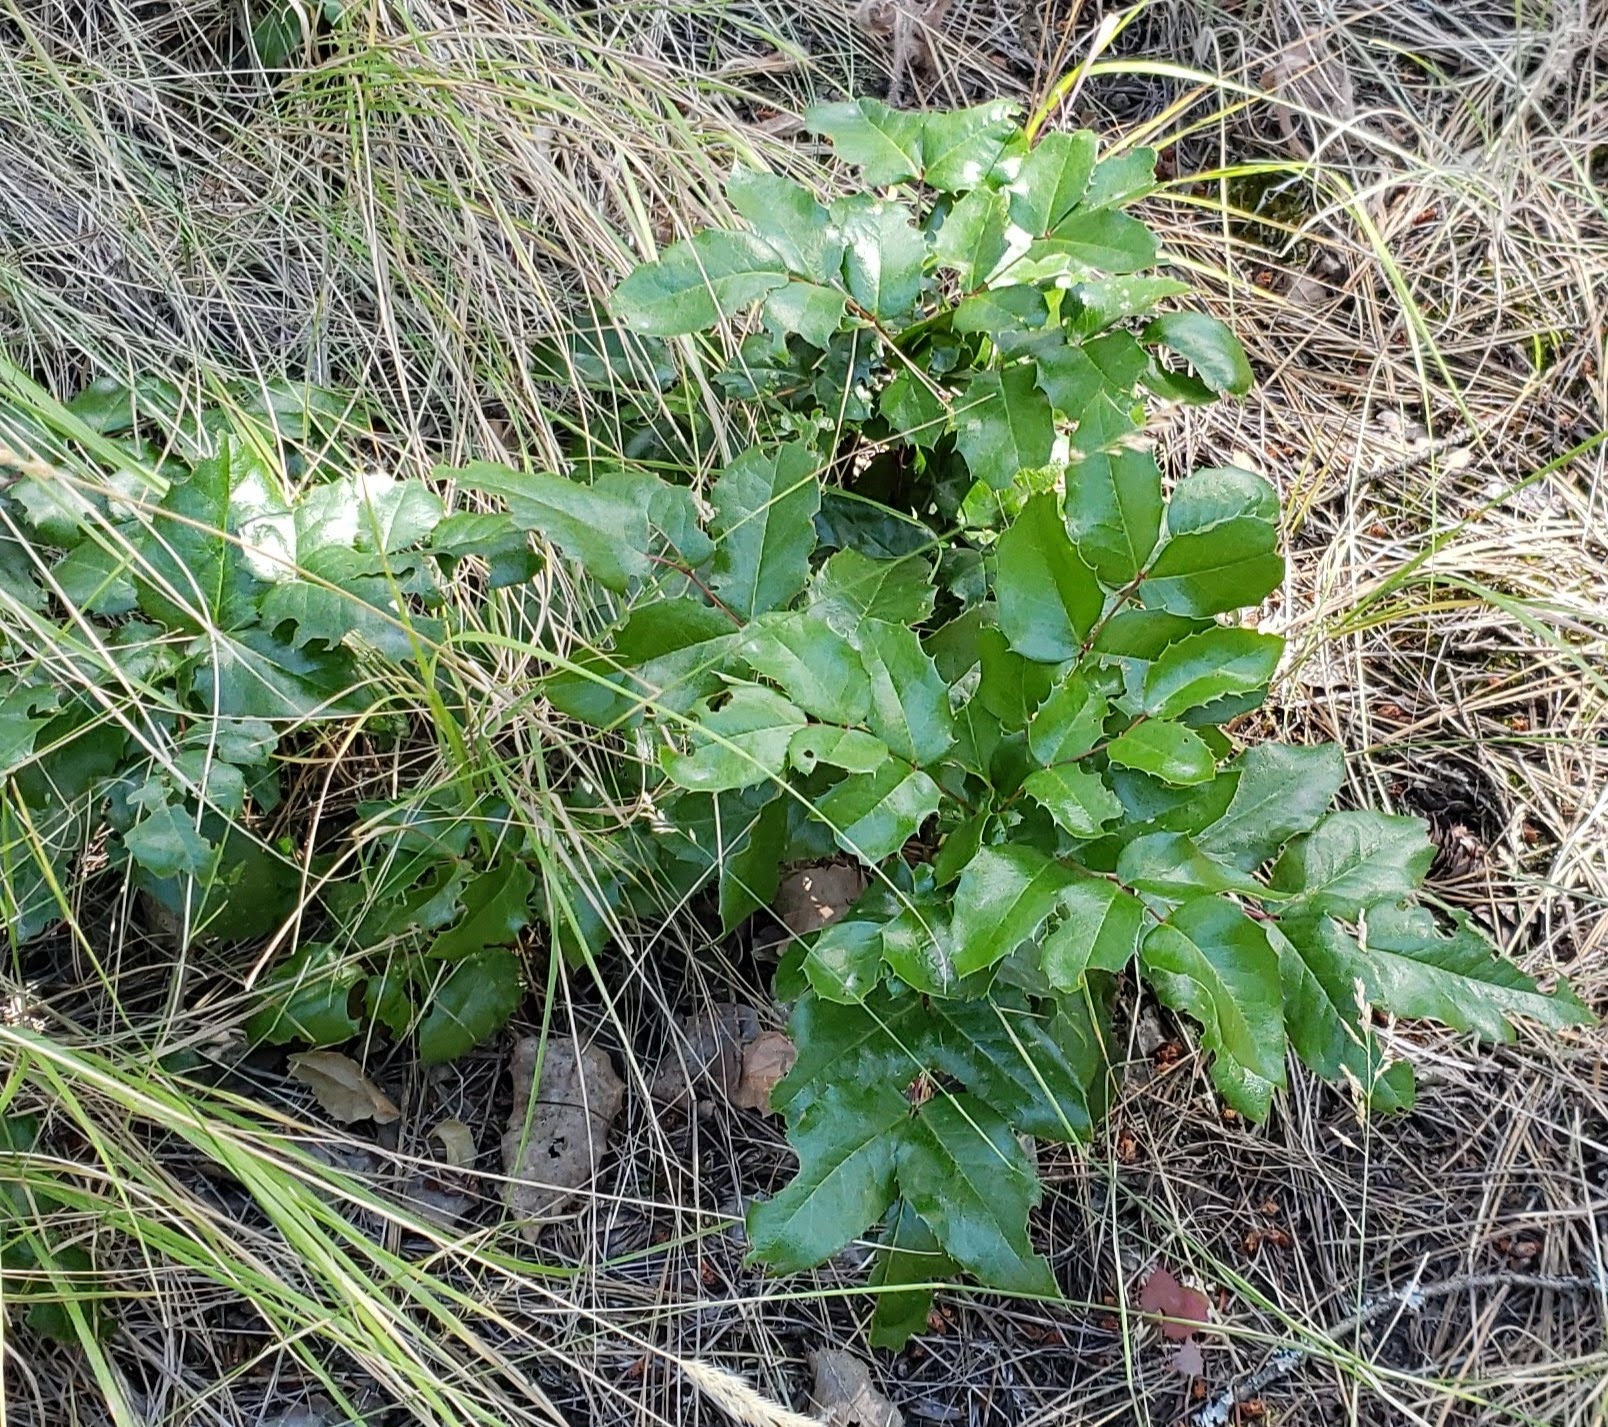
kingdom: Plantae
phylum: Tracheophyta
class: Magnoliopsida
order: Ranunculales
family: Berberidaceae
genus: Mahonia
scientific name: Mahonia aquifolium
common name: Oregon-grape
